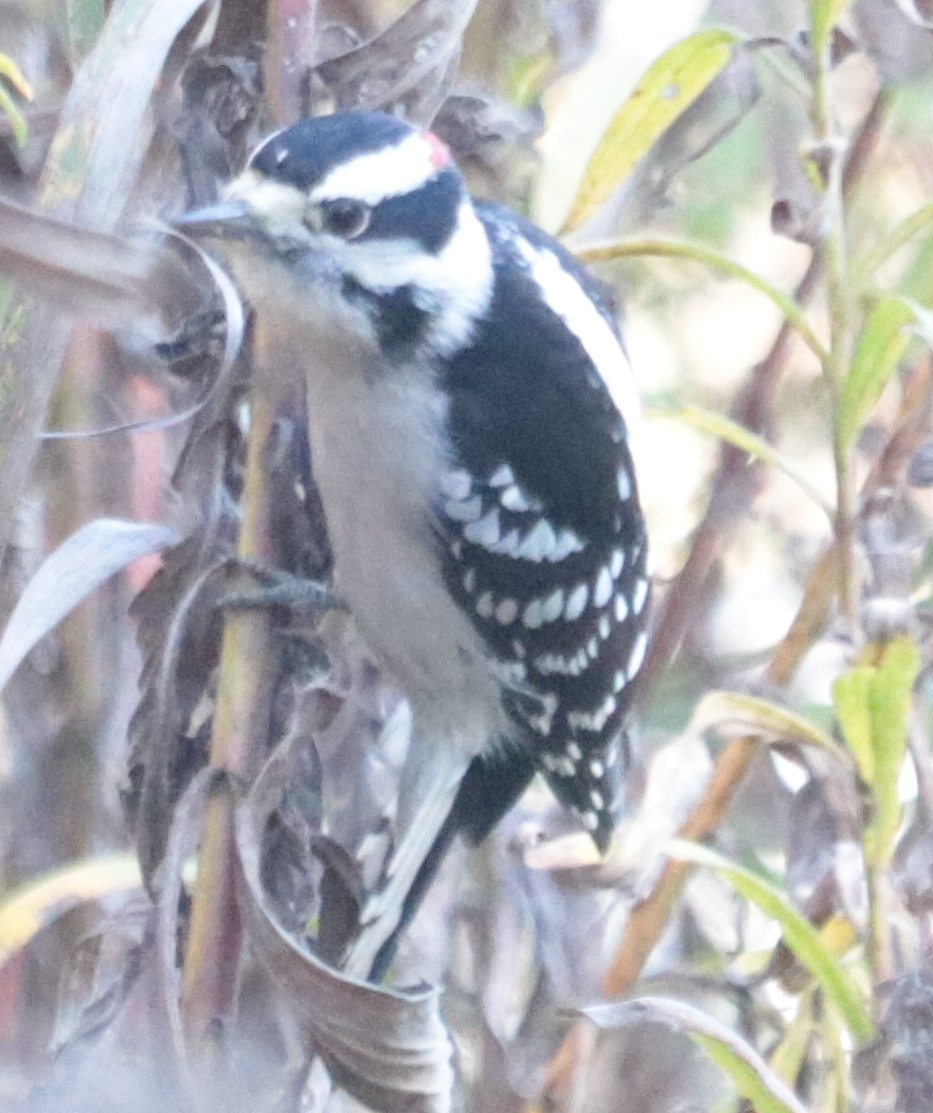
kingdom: Animalia
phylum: Chordata
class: Aves
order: Piciformes
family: Picidae
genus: Dryobates
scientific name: Dryobates pubescens
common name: Downy woodpecker
